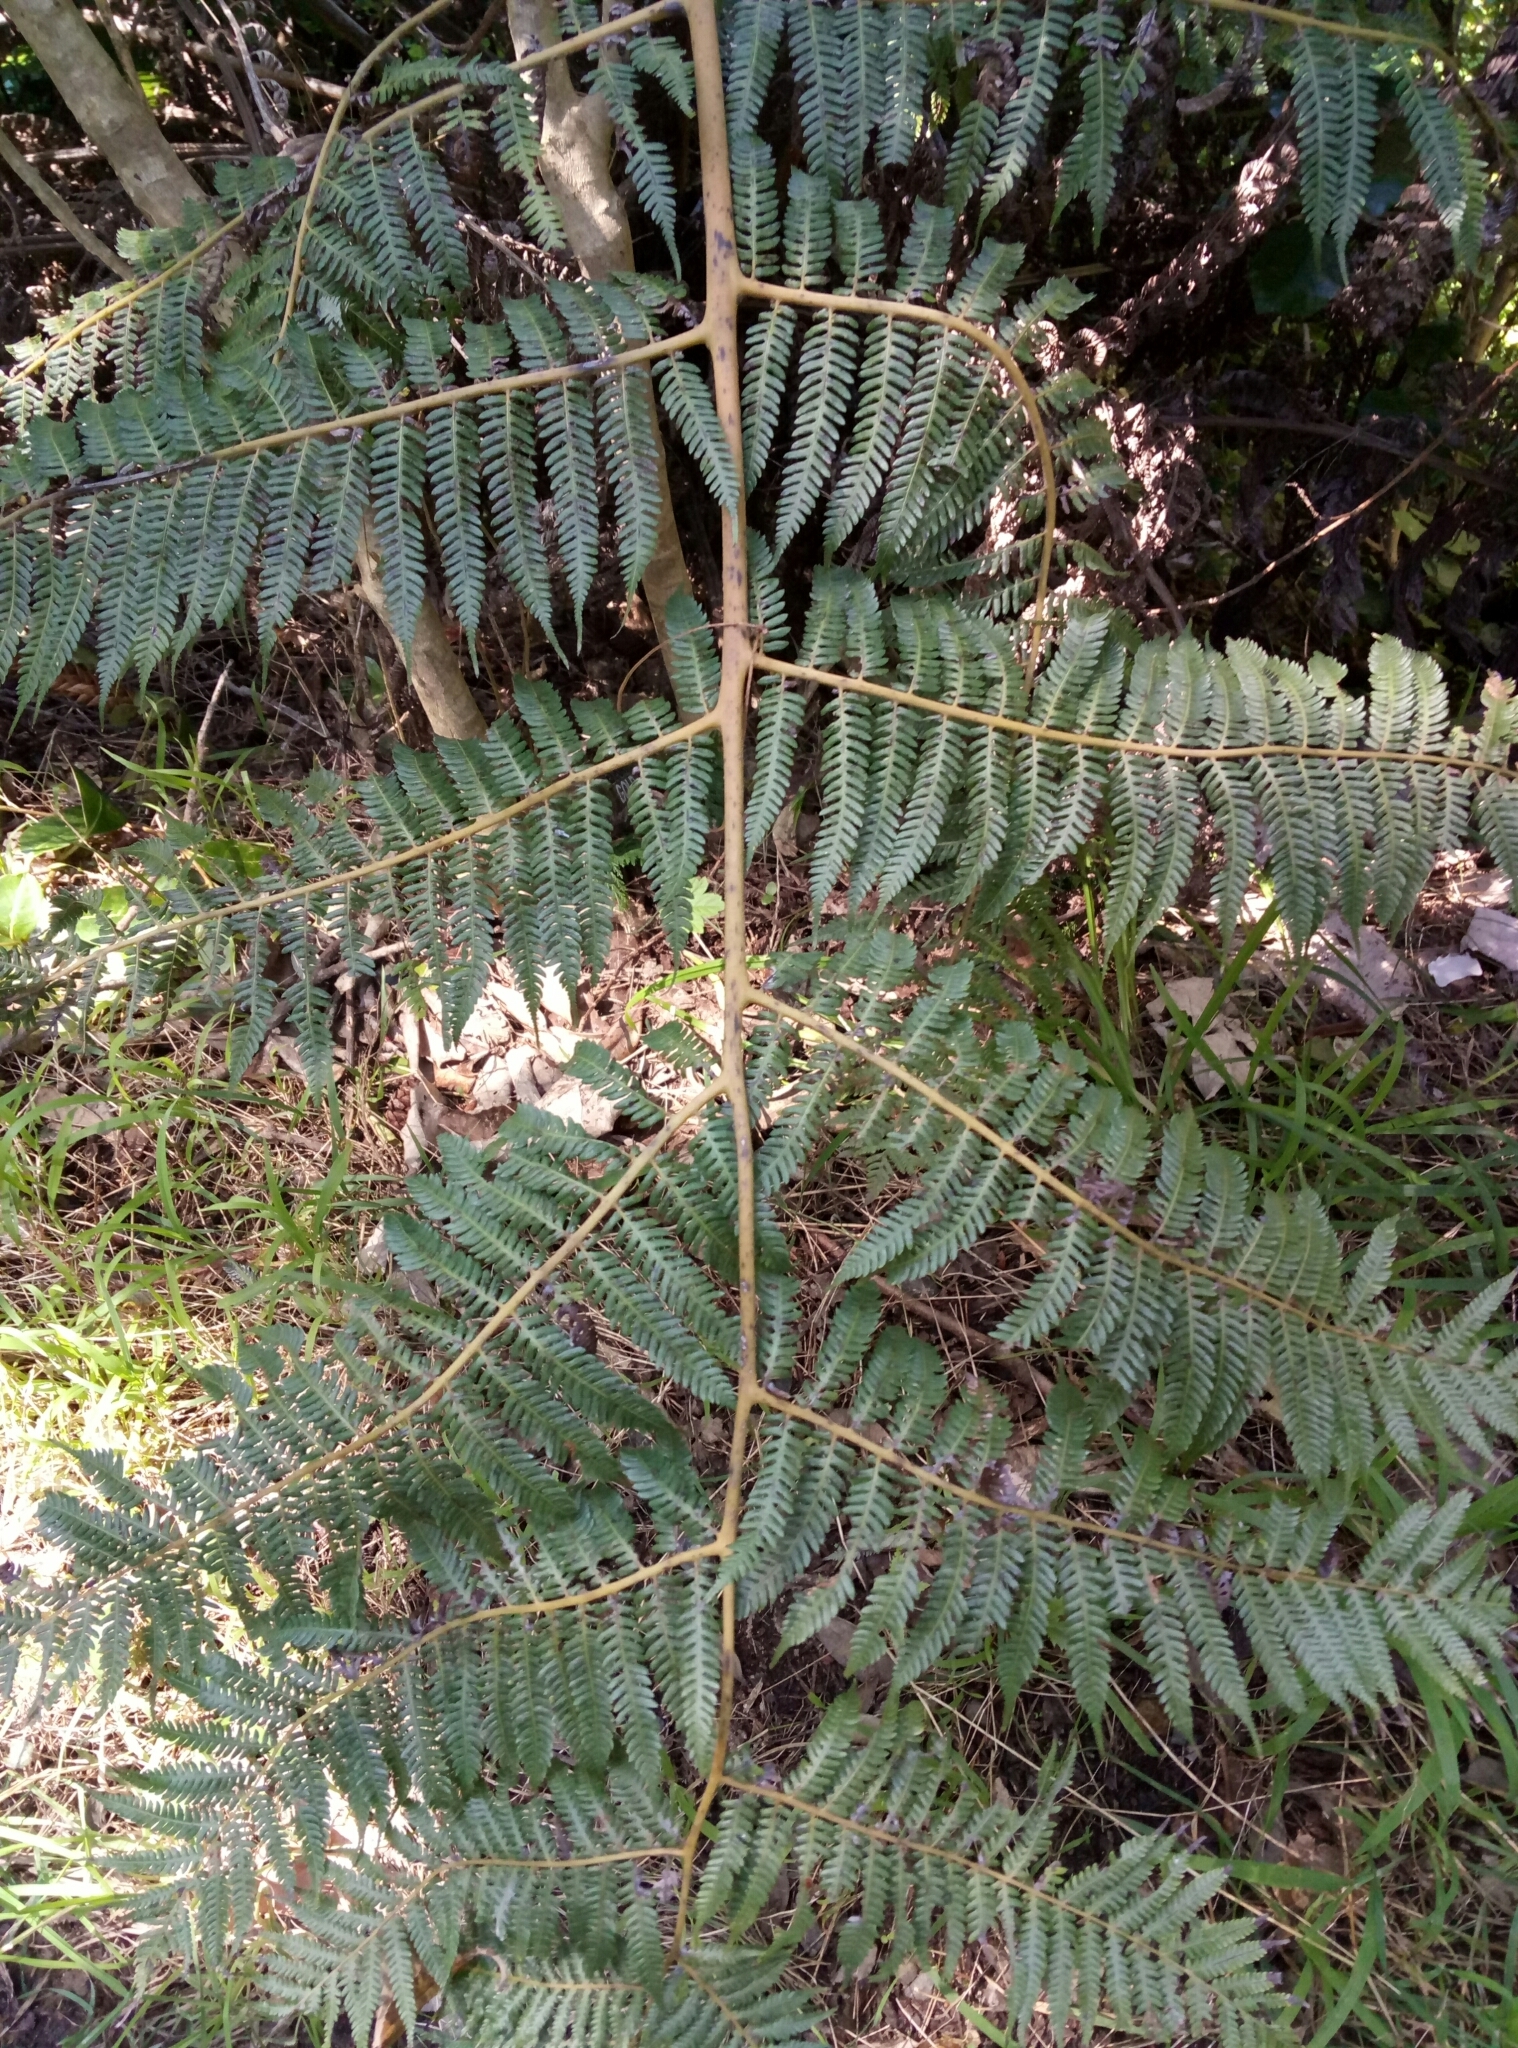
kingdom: Plantae
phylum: Tracheophyta
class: Polypodiopsida
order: Cyatheales
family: Cyatheaceae
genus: Alsophila
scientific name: Alsophila dealbata
